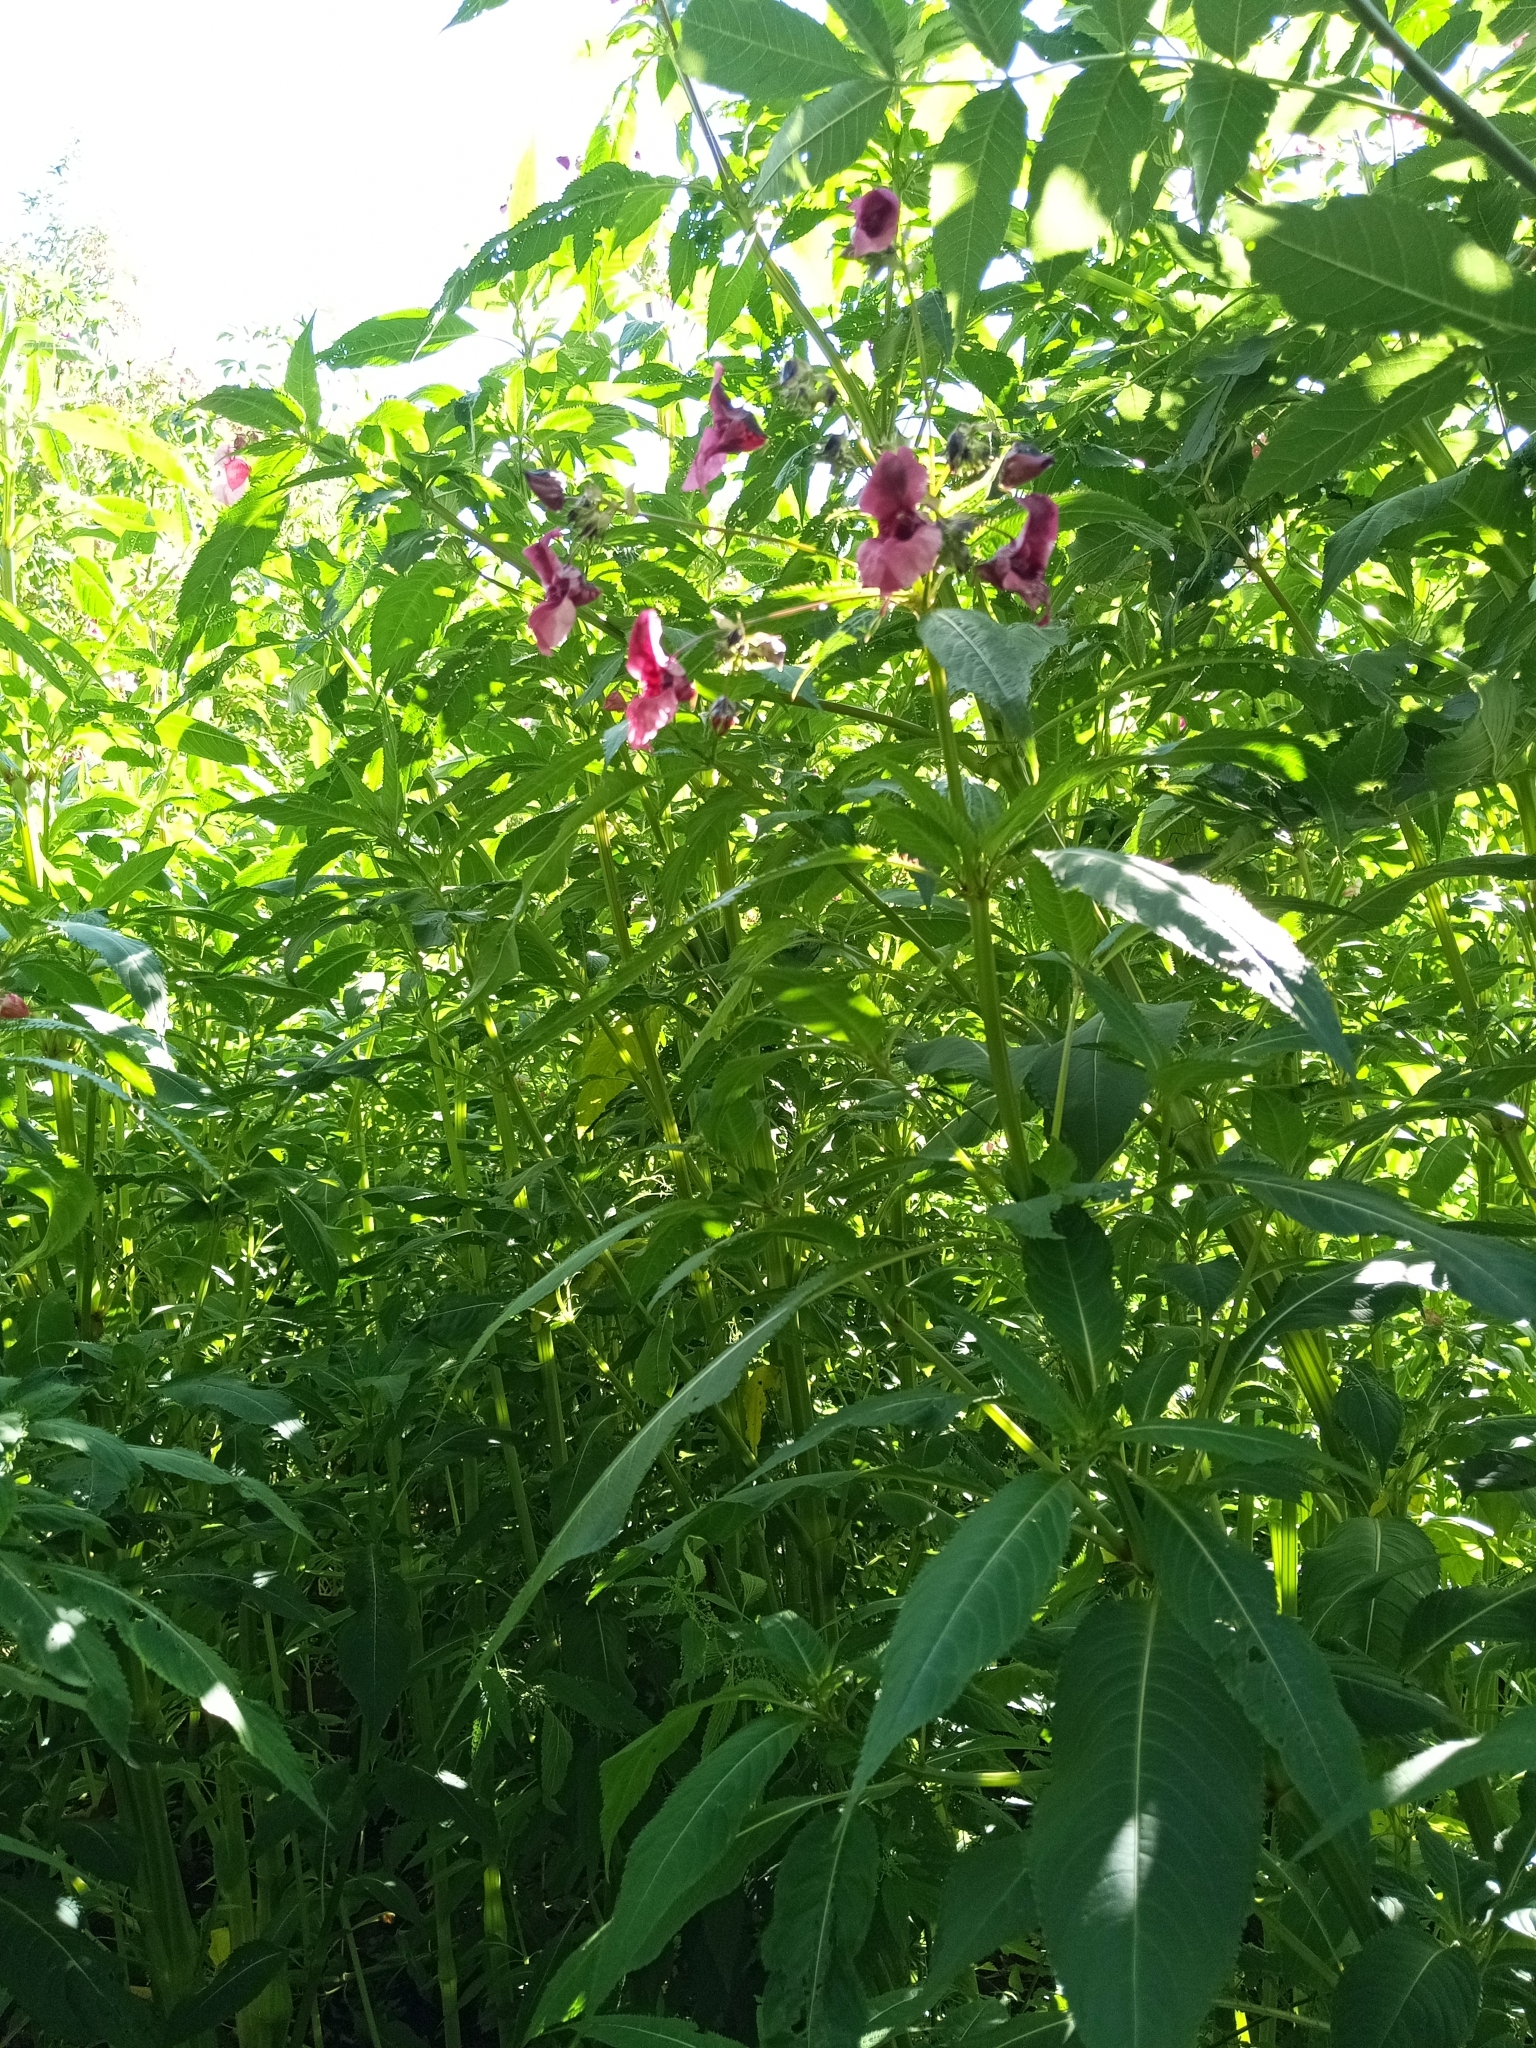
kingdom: Plantae
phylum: Tracheophyta
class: Magnoliopsida
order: Ericales
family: Balsaminaceae
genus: Impatiens
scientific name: Impatiens glandulifera
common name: Himalayan balsam
